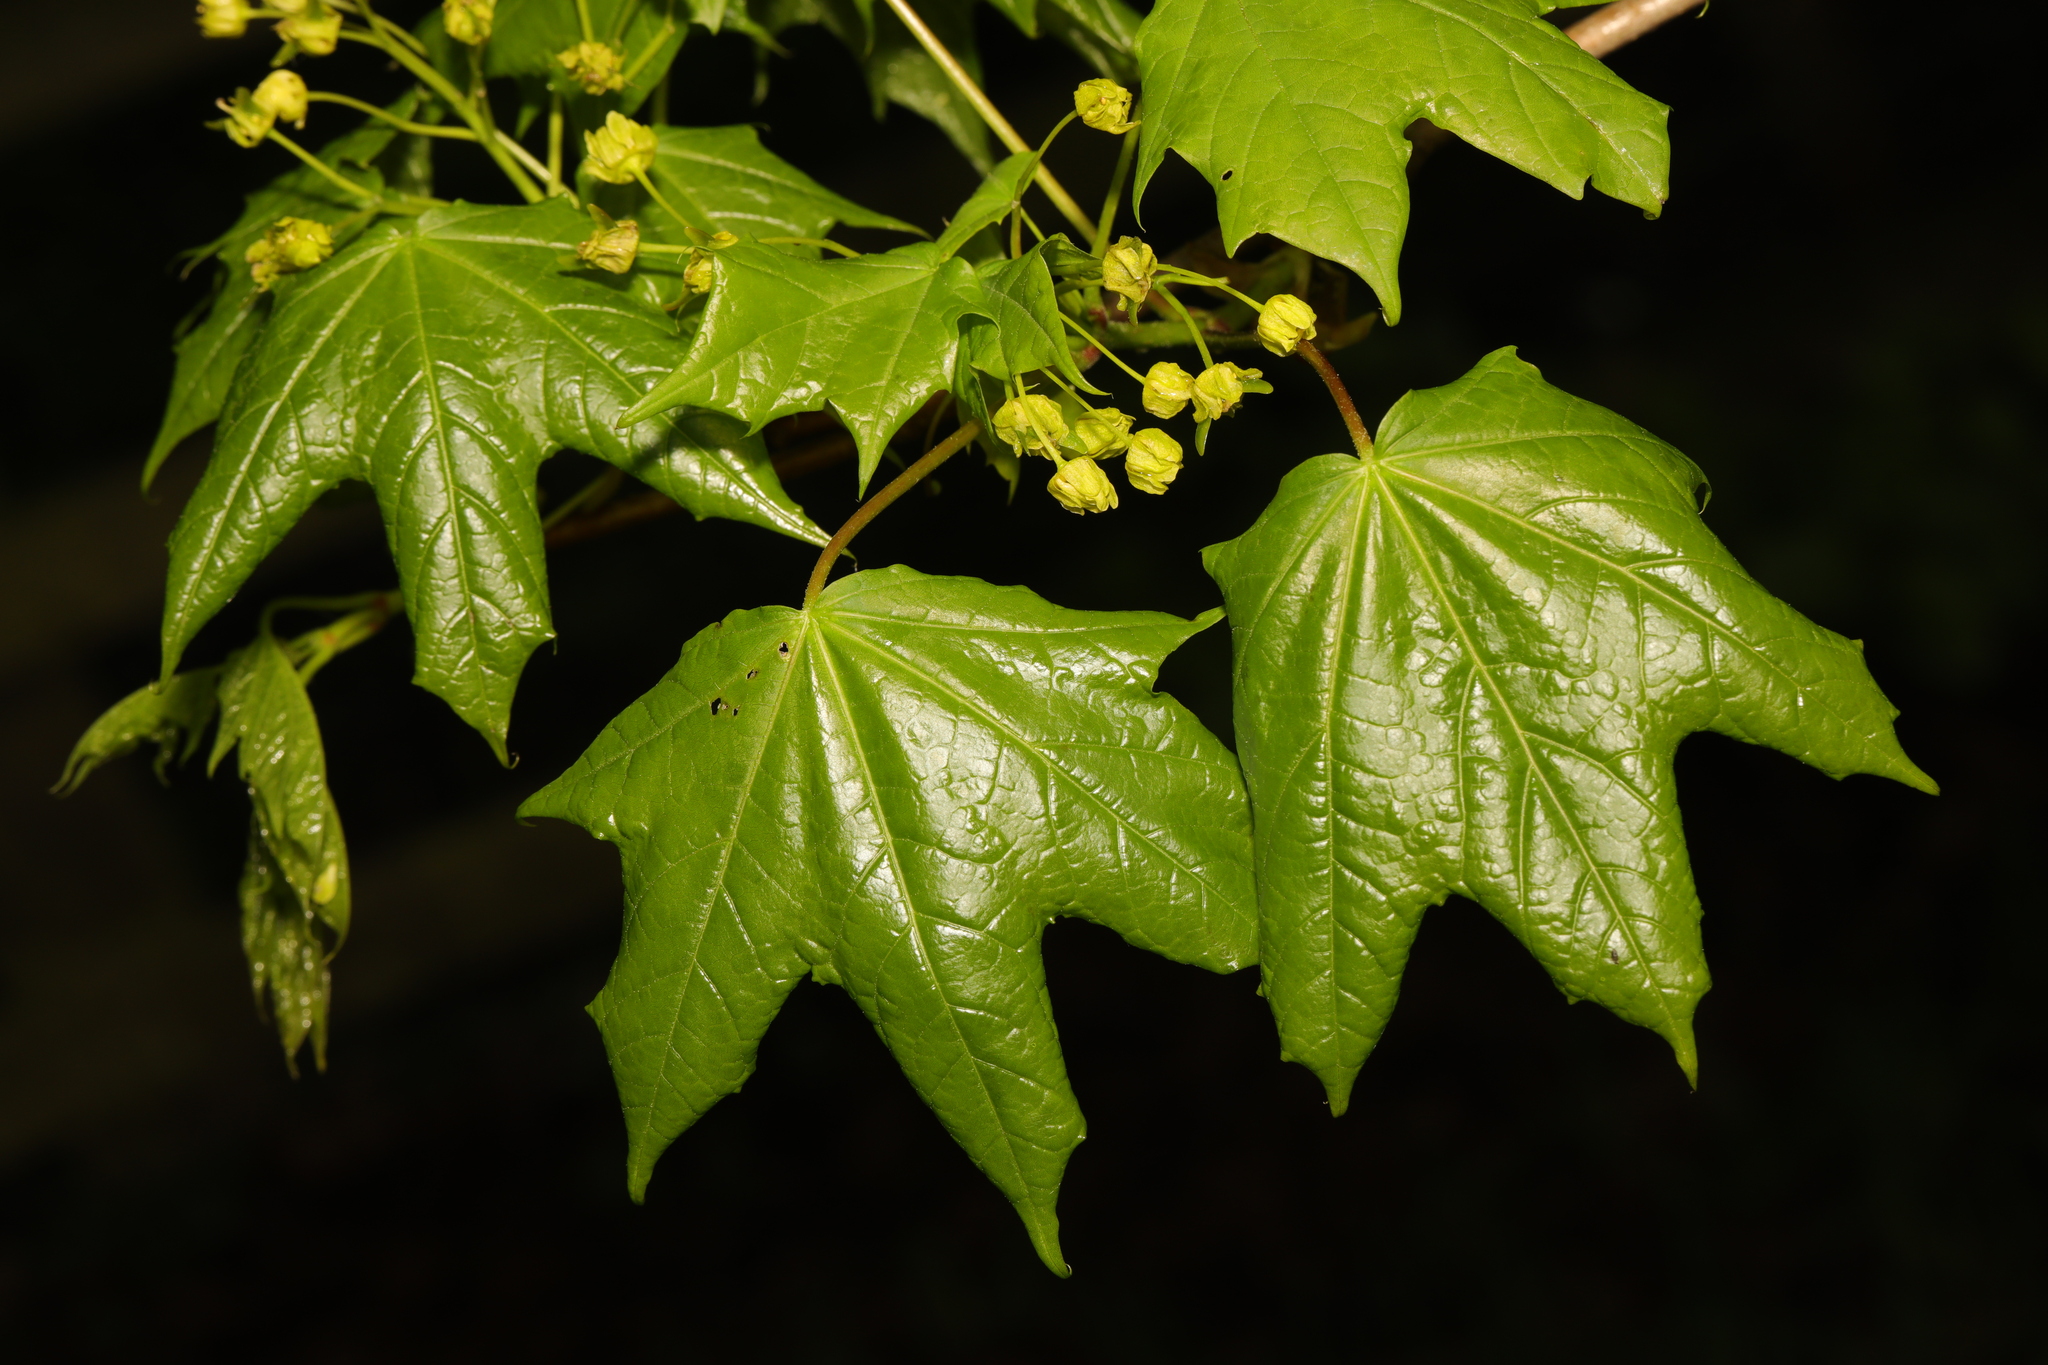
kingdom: Plantae
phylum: Tracheophyta
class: Magnoliopsida
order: Sapindales
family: Sapindaceae
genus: Acer
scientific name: Acer platanoides
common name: Norway maple
